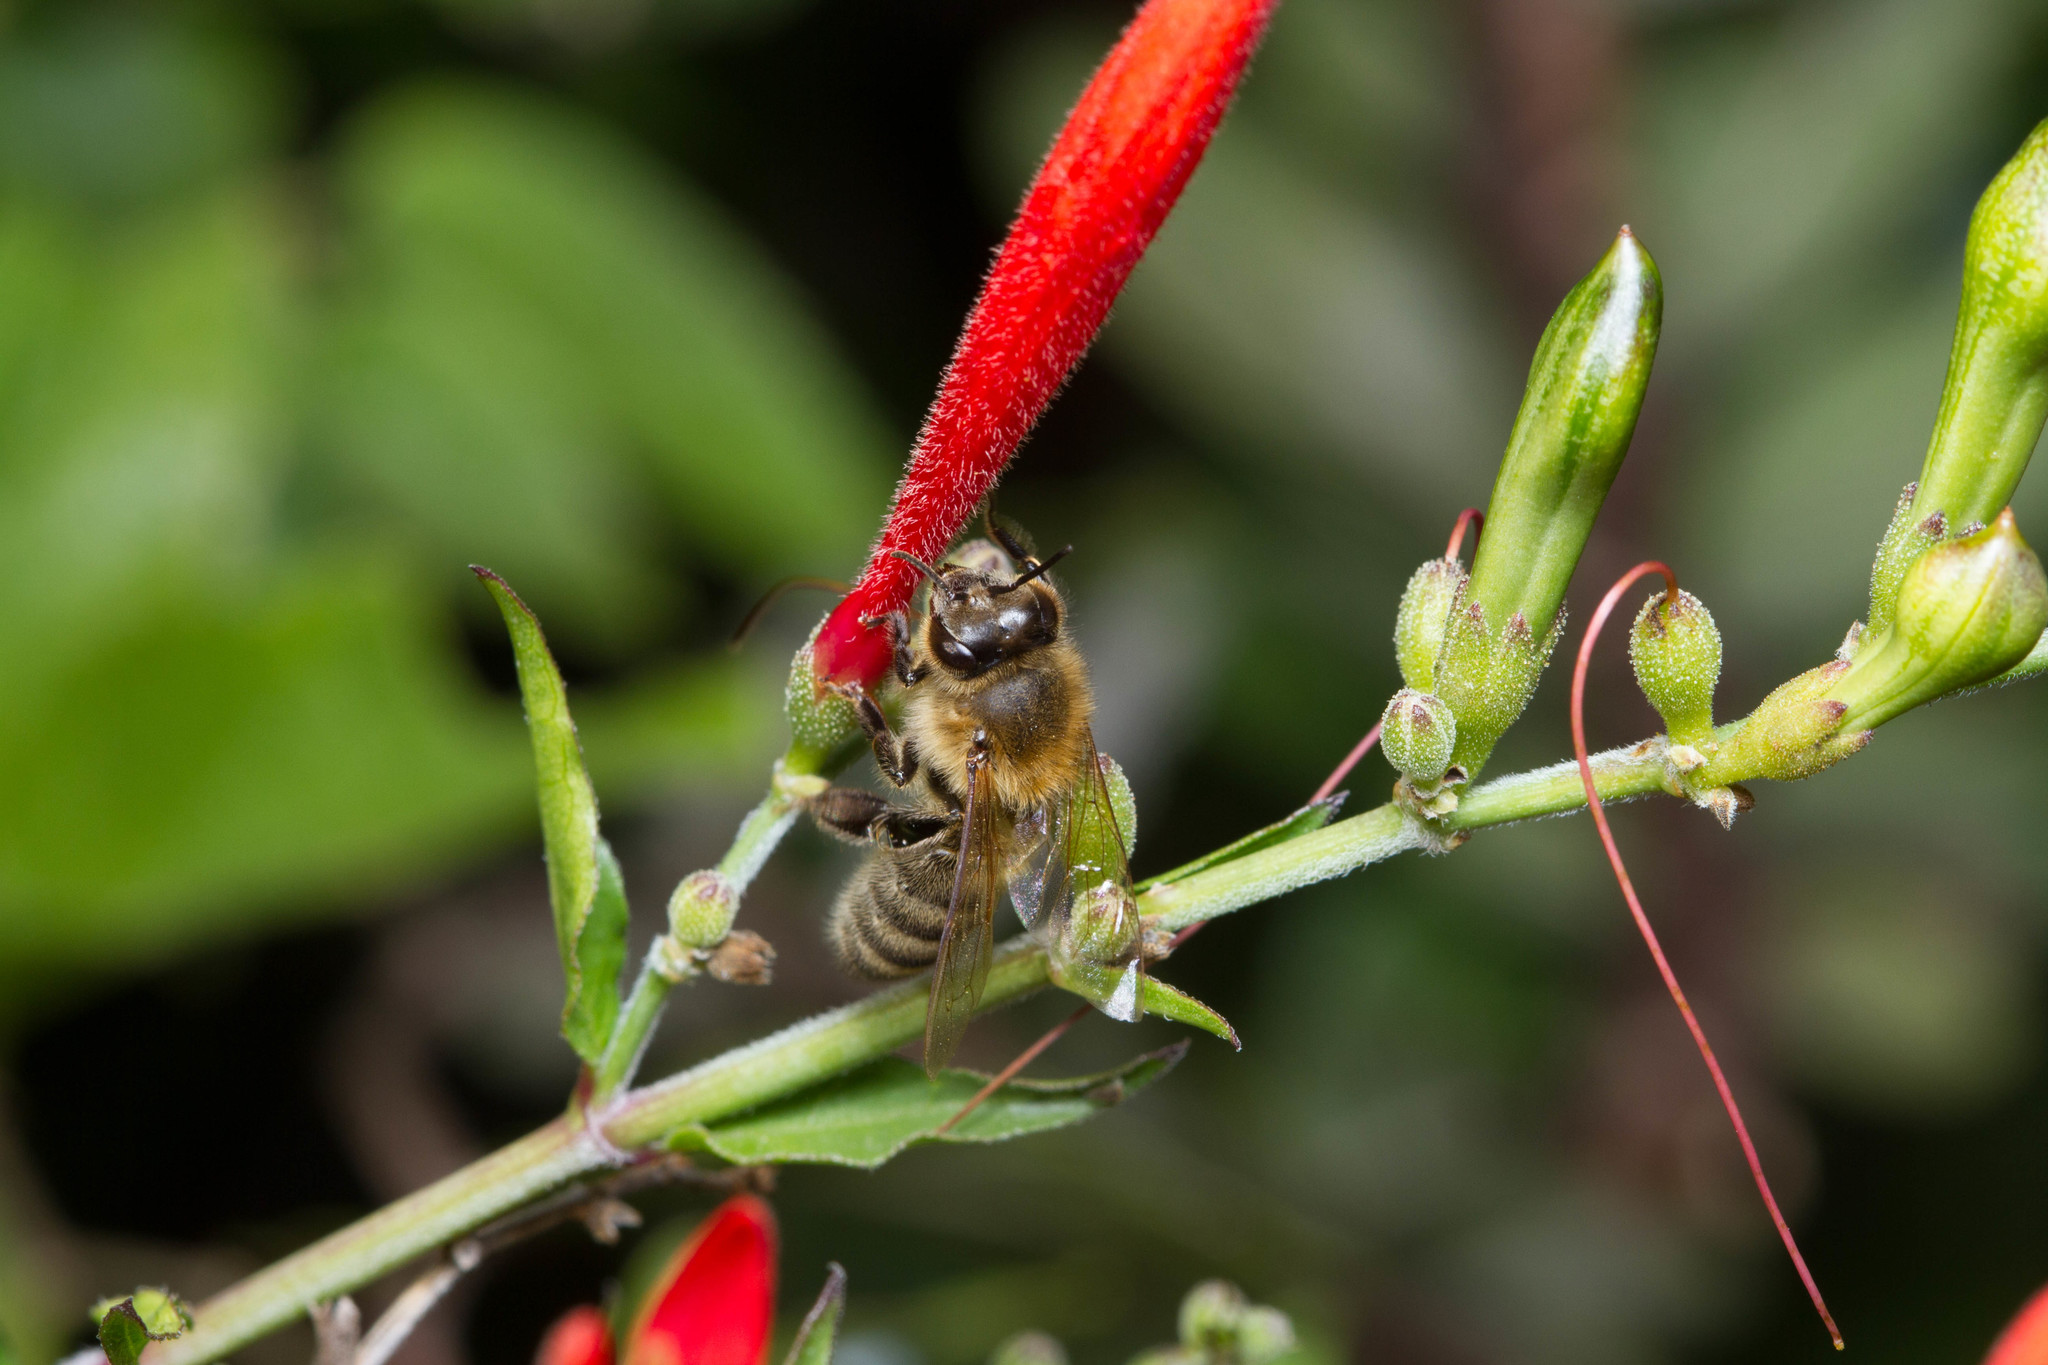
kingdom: Animalia
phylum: Arthropoda
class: Insecta
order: Hymenoptera
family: Apidae
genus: Apis
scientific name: Apis mellifera
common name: Honey bee
